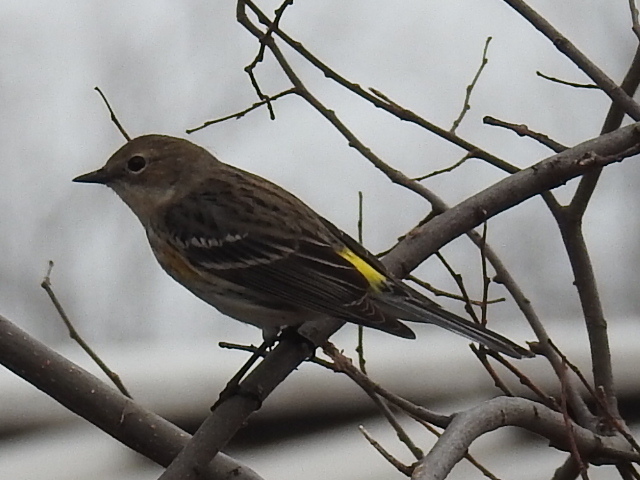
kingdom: Animalia
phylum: Chordata
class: Aves
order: Passeriformes
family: Parulidae
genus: Setophaga
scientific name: Setophaga coronata
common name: Myrtle warbler
